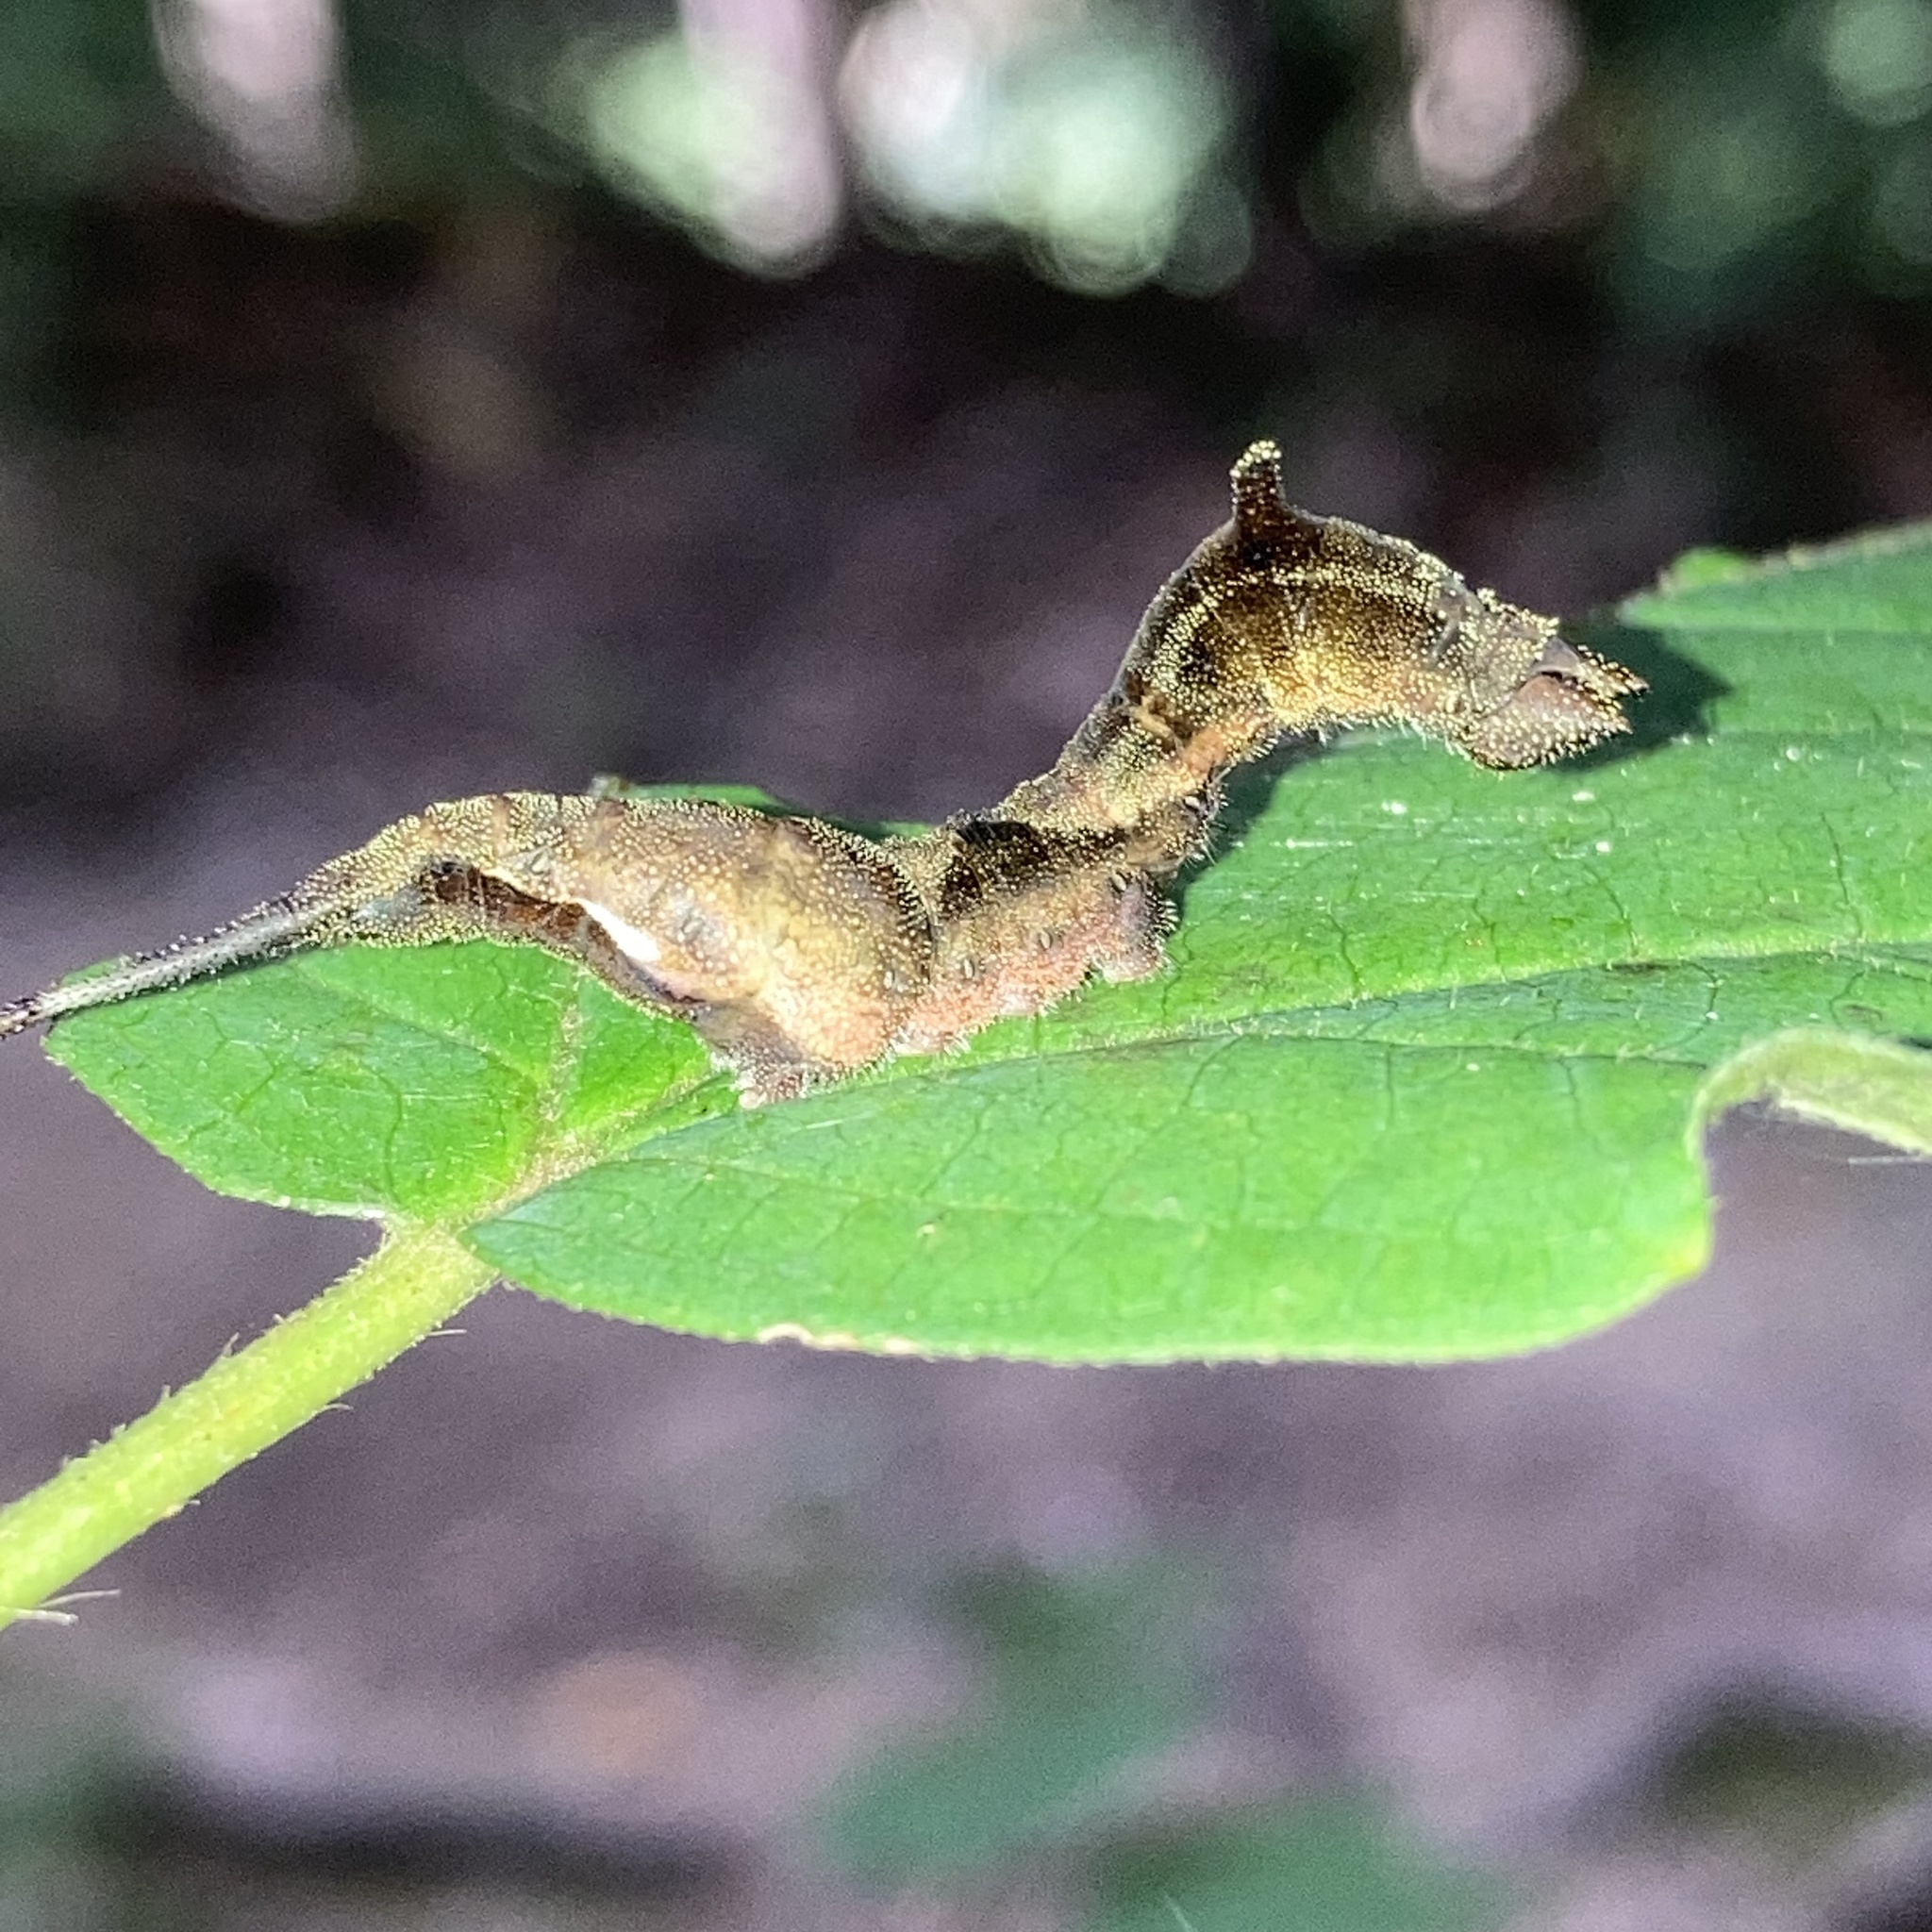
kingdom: Animalia
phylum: Arthropoda
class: Insecta
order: Lepidoptera
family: Drepanidae
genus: Oreta
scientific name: Oreta rosea
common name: Rose hooktip
